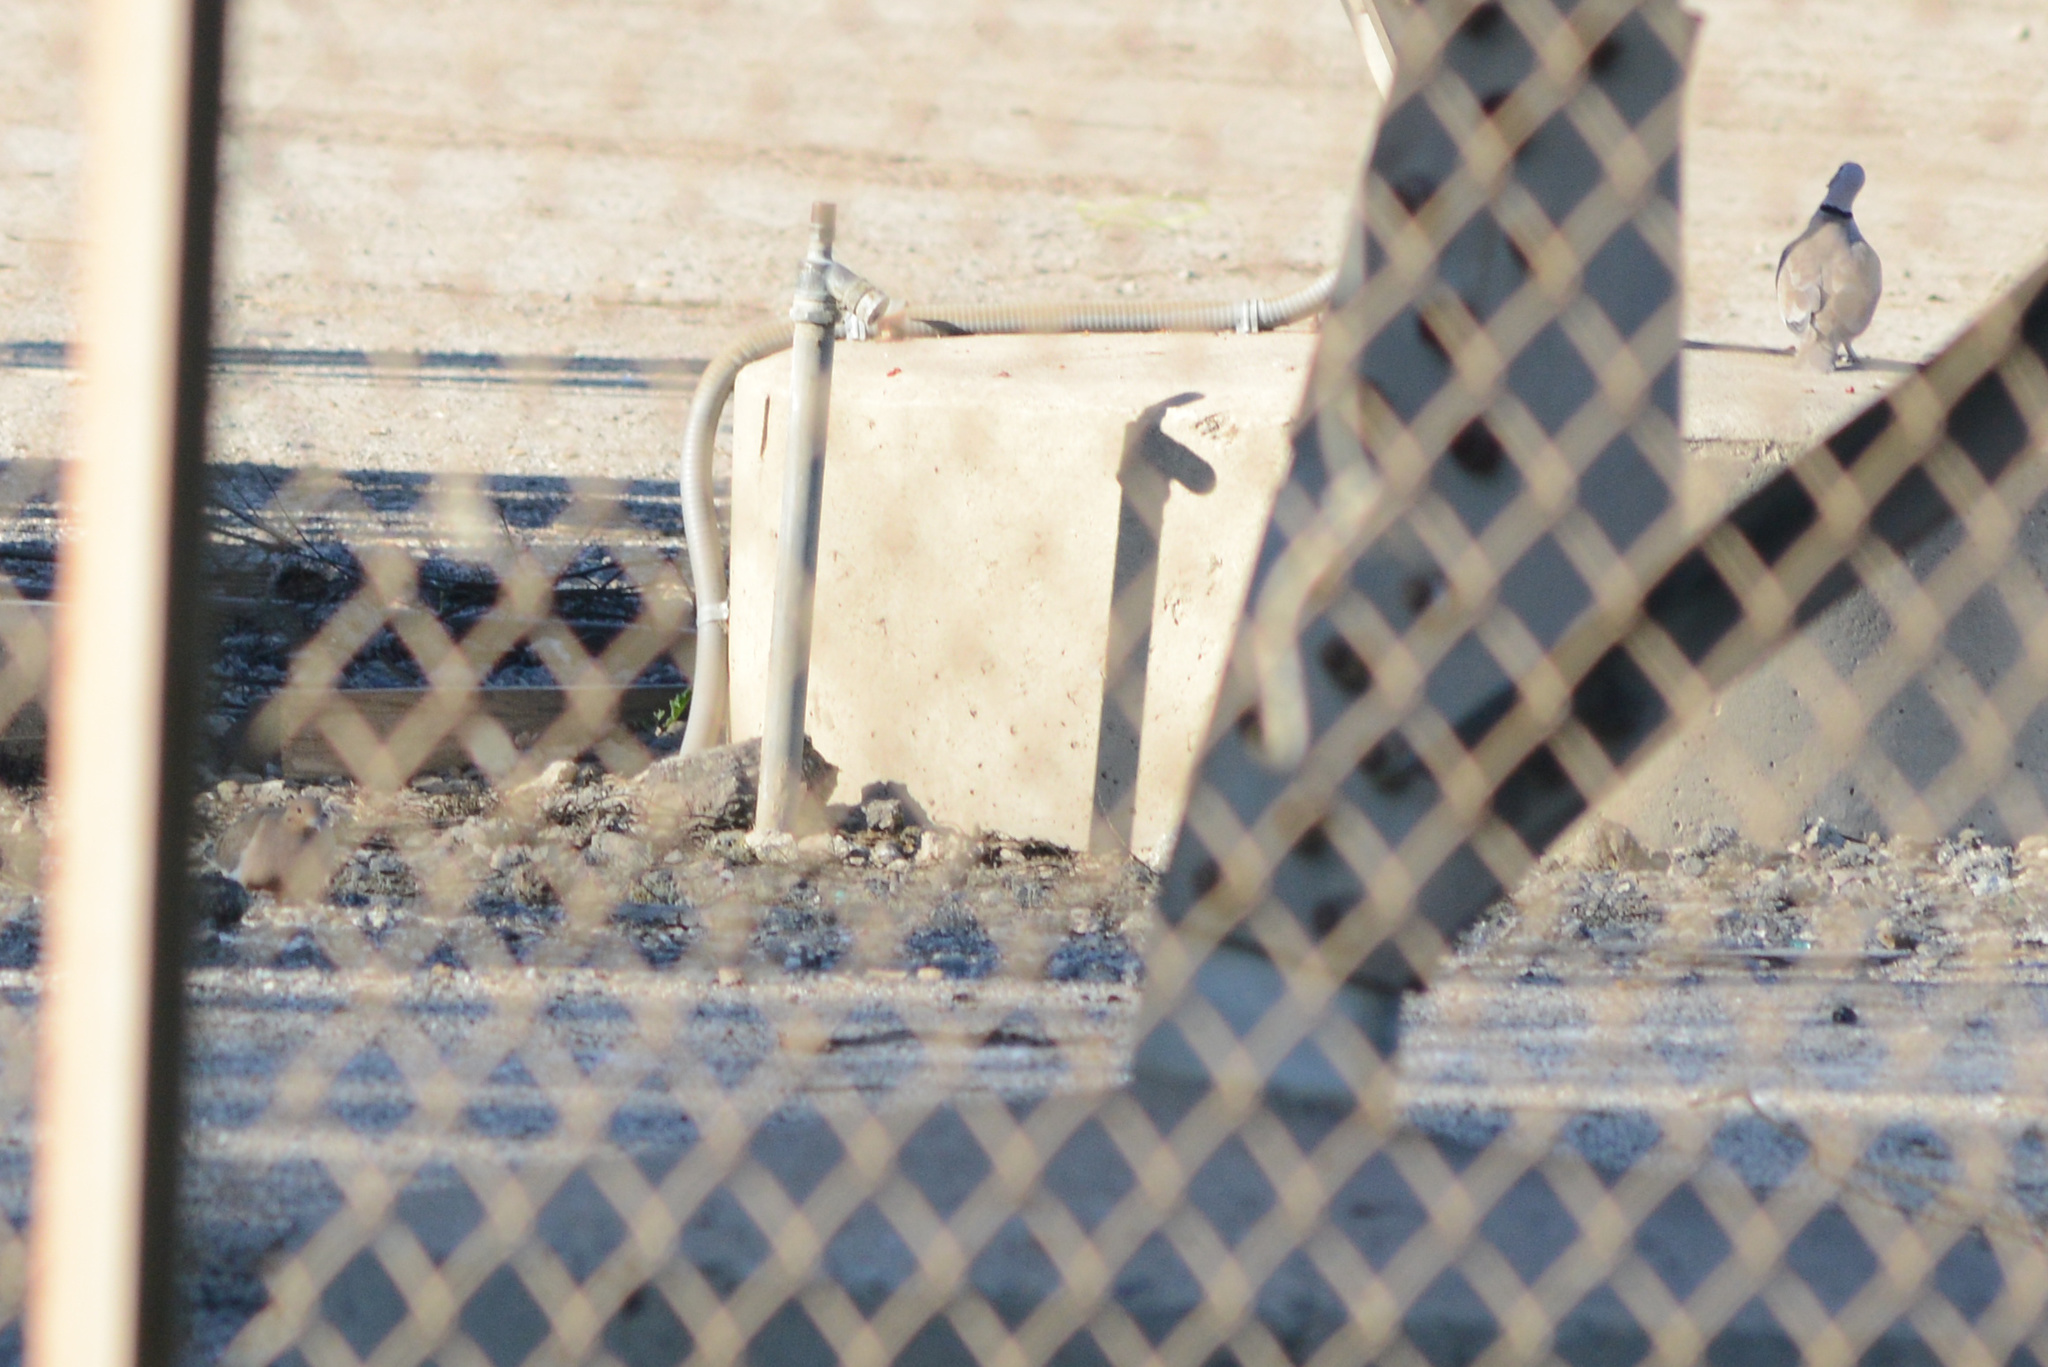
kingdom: Animalia
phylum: Chordata
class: Aves
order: Columbiformes
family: Columbidae
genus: Streptopelia
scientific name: Streptopelia decaocto
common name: Eurasian collared dove
